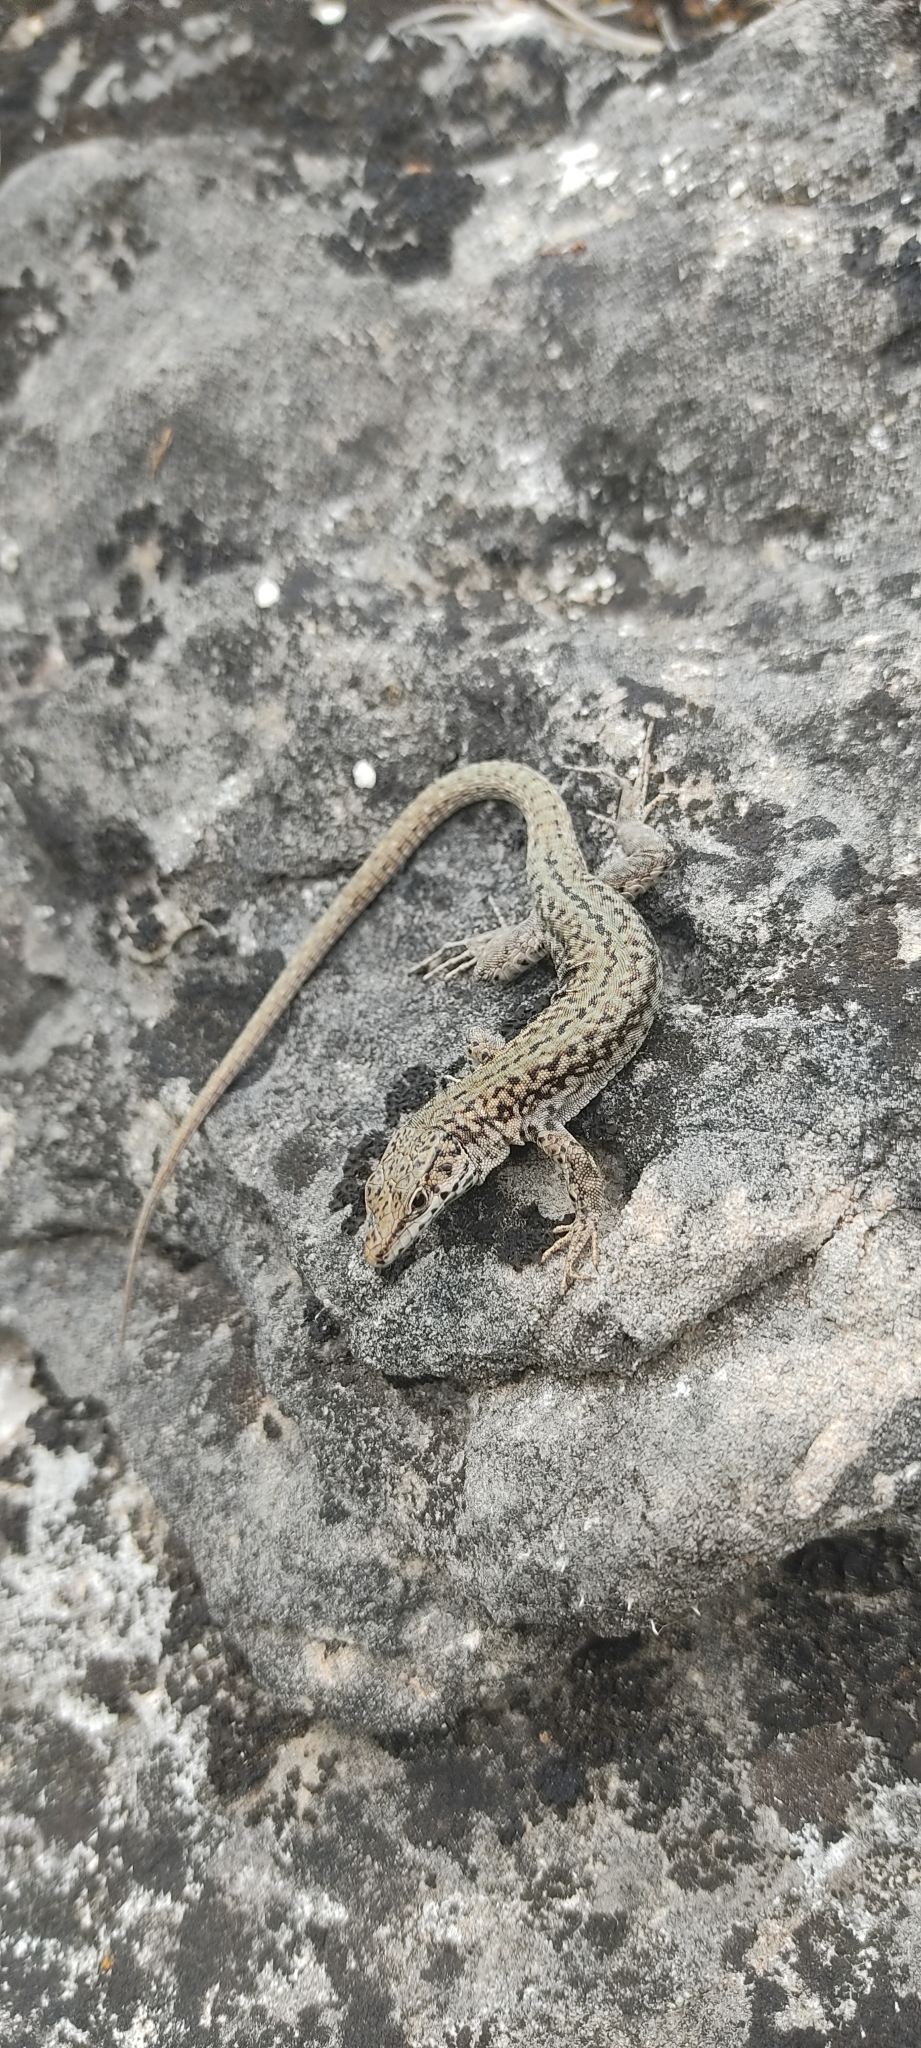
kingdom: Animalia
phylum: Chordata
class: Squamata
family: Lacertidae
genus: Podarcis
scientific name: Podarcis liolepis
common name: Catalonian wall lizard
